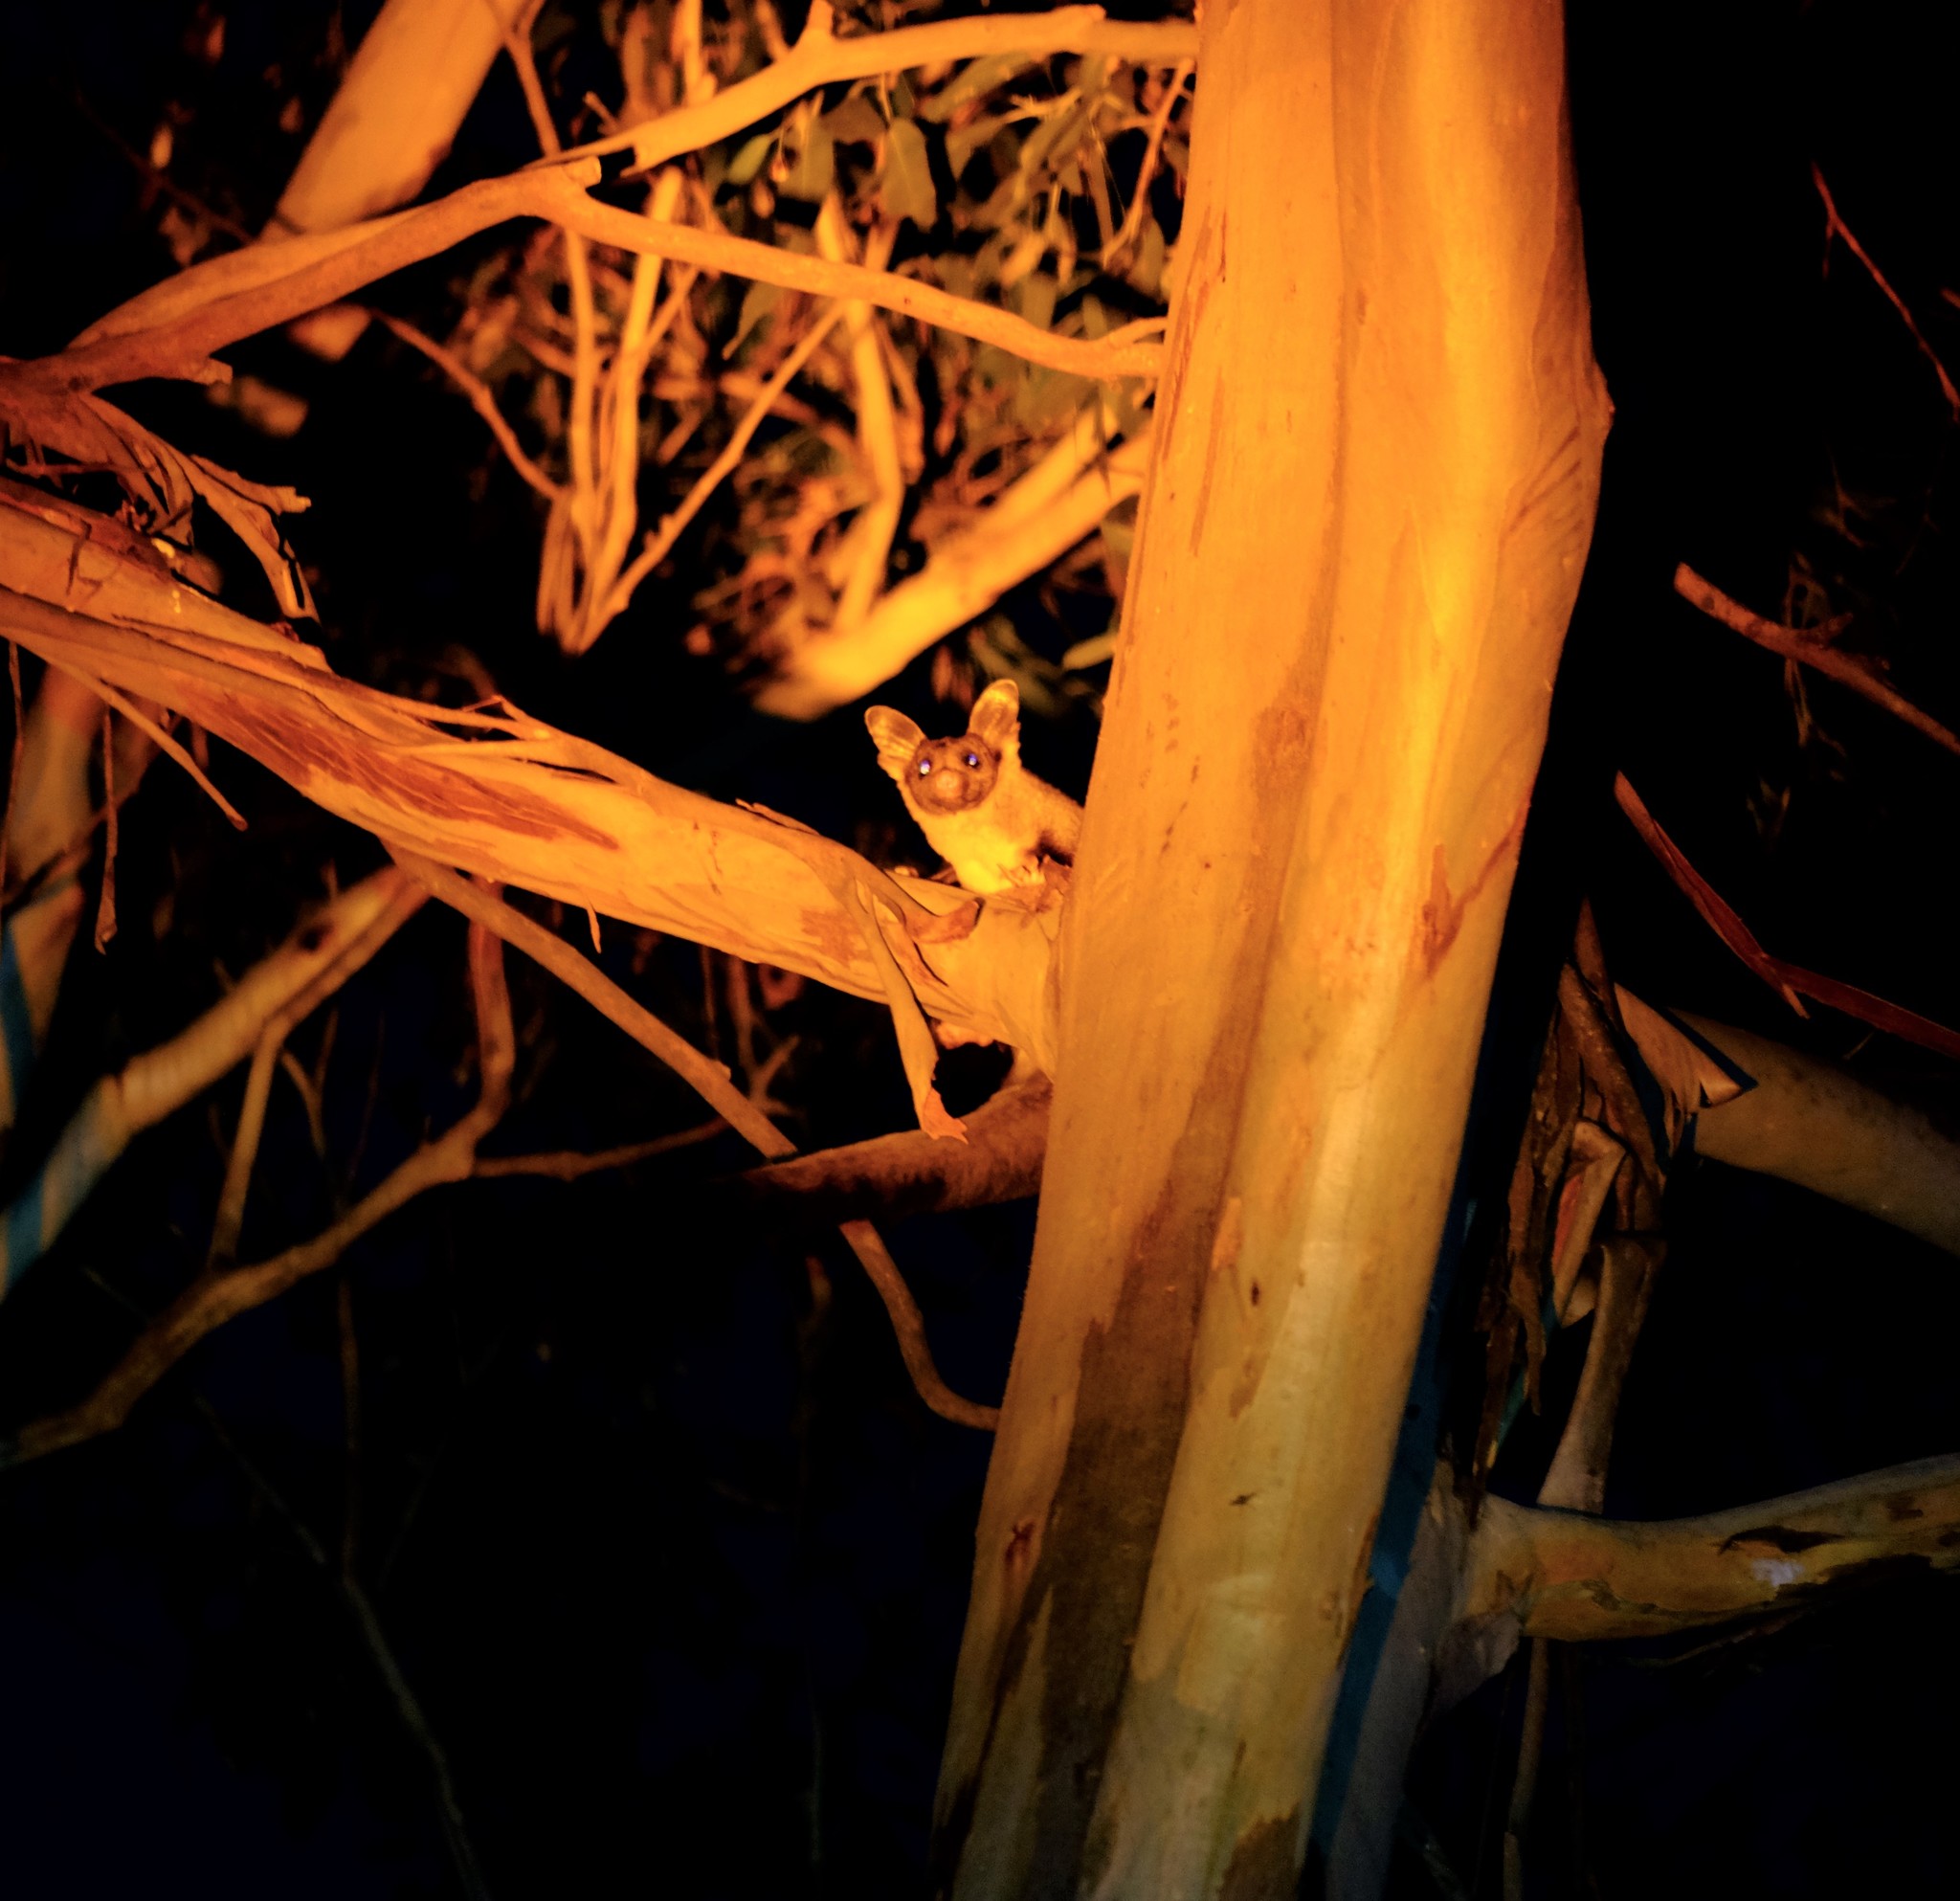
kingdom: Animalia
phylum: Chordata
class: Mammalia
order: Diprotodontia
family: Petauridae
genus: Petaurus
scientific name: Petaurus australis
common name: Yellow-bellied glider
